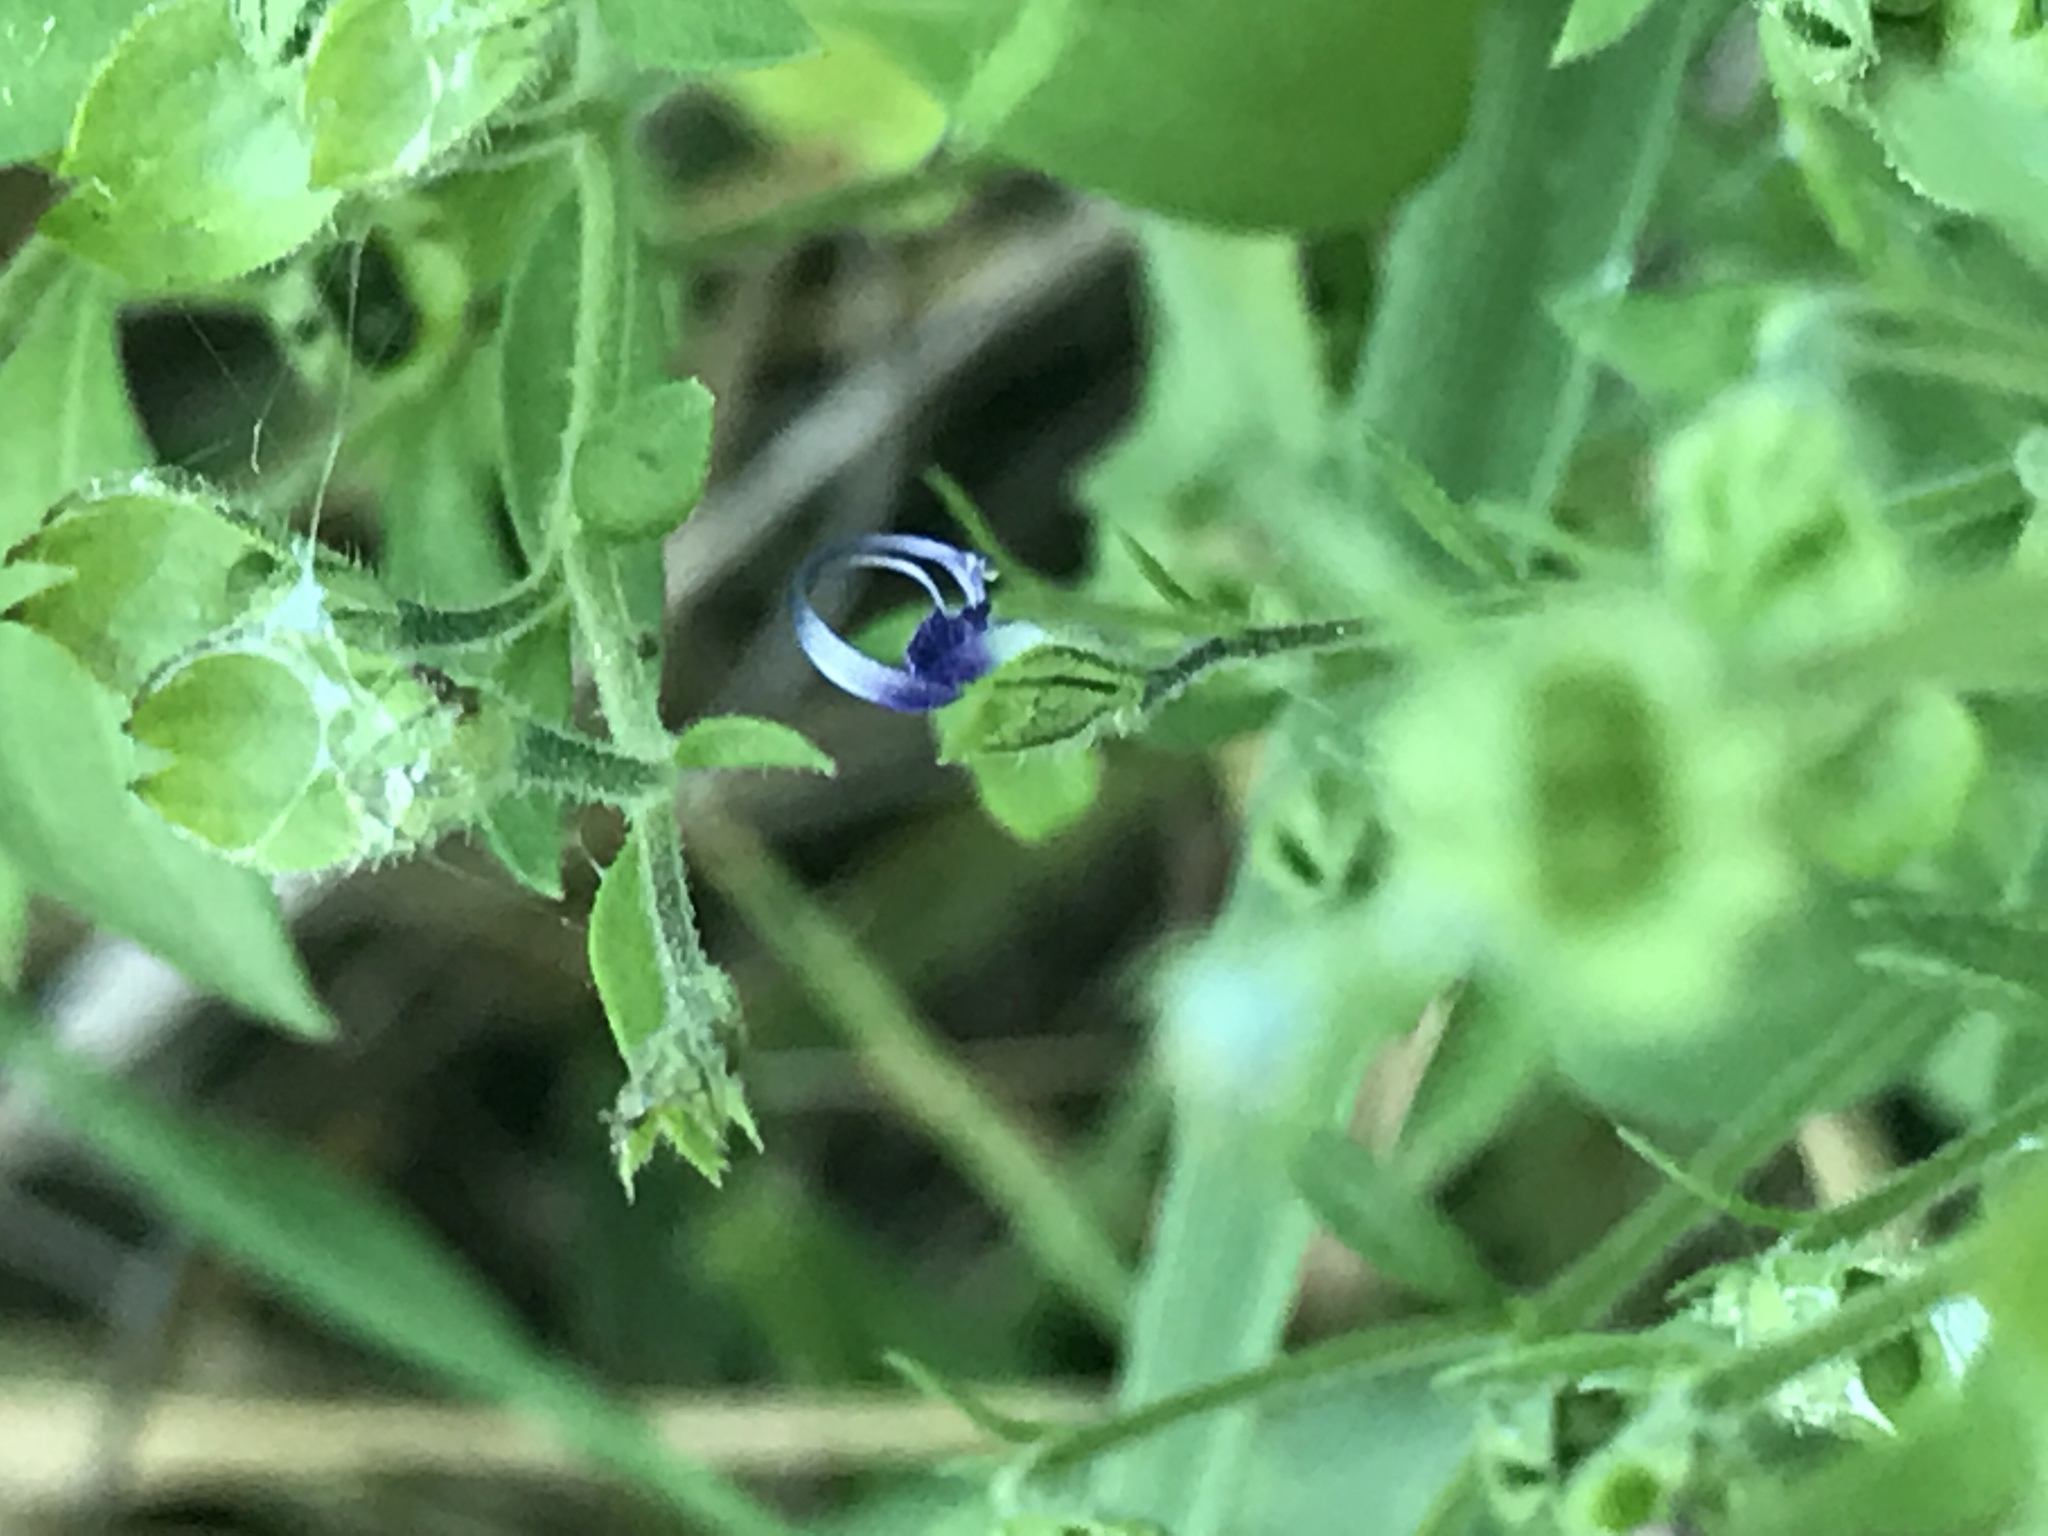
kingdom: Plantae
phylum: Tracheophyta
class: Magnoliopsida
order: Lamiales
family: Lamiaceae
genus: Trichostema
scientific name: Trichostema dichotomum
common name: Bastard pennyroyal
